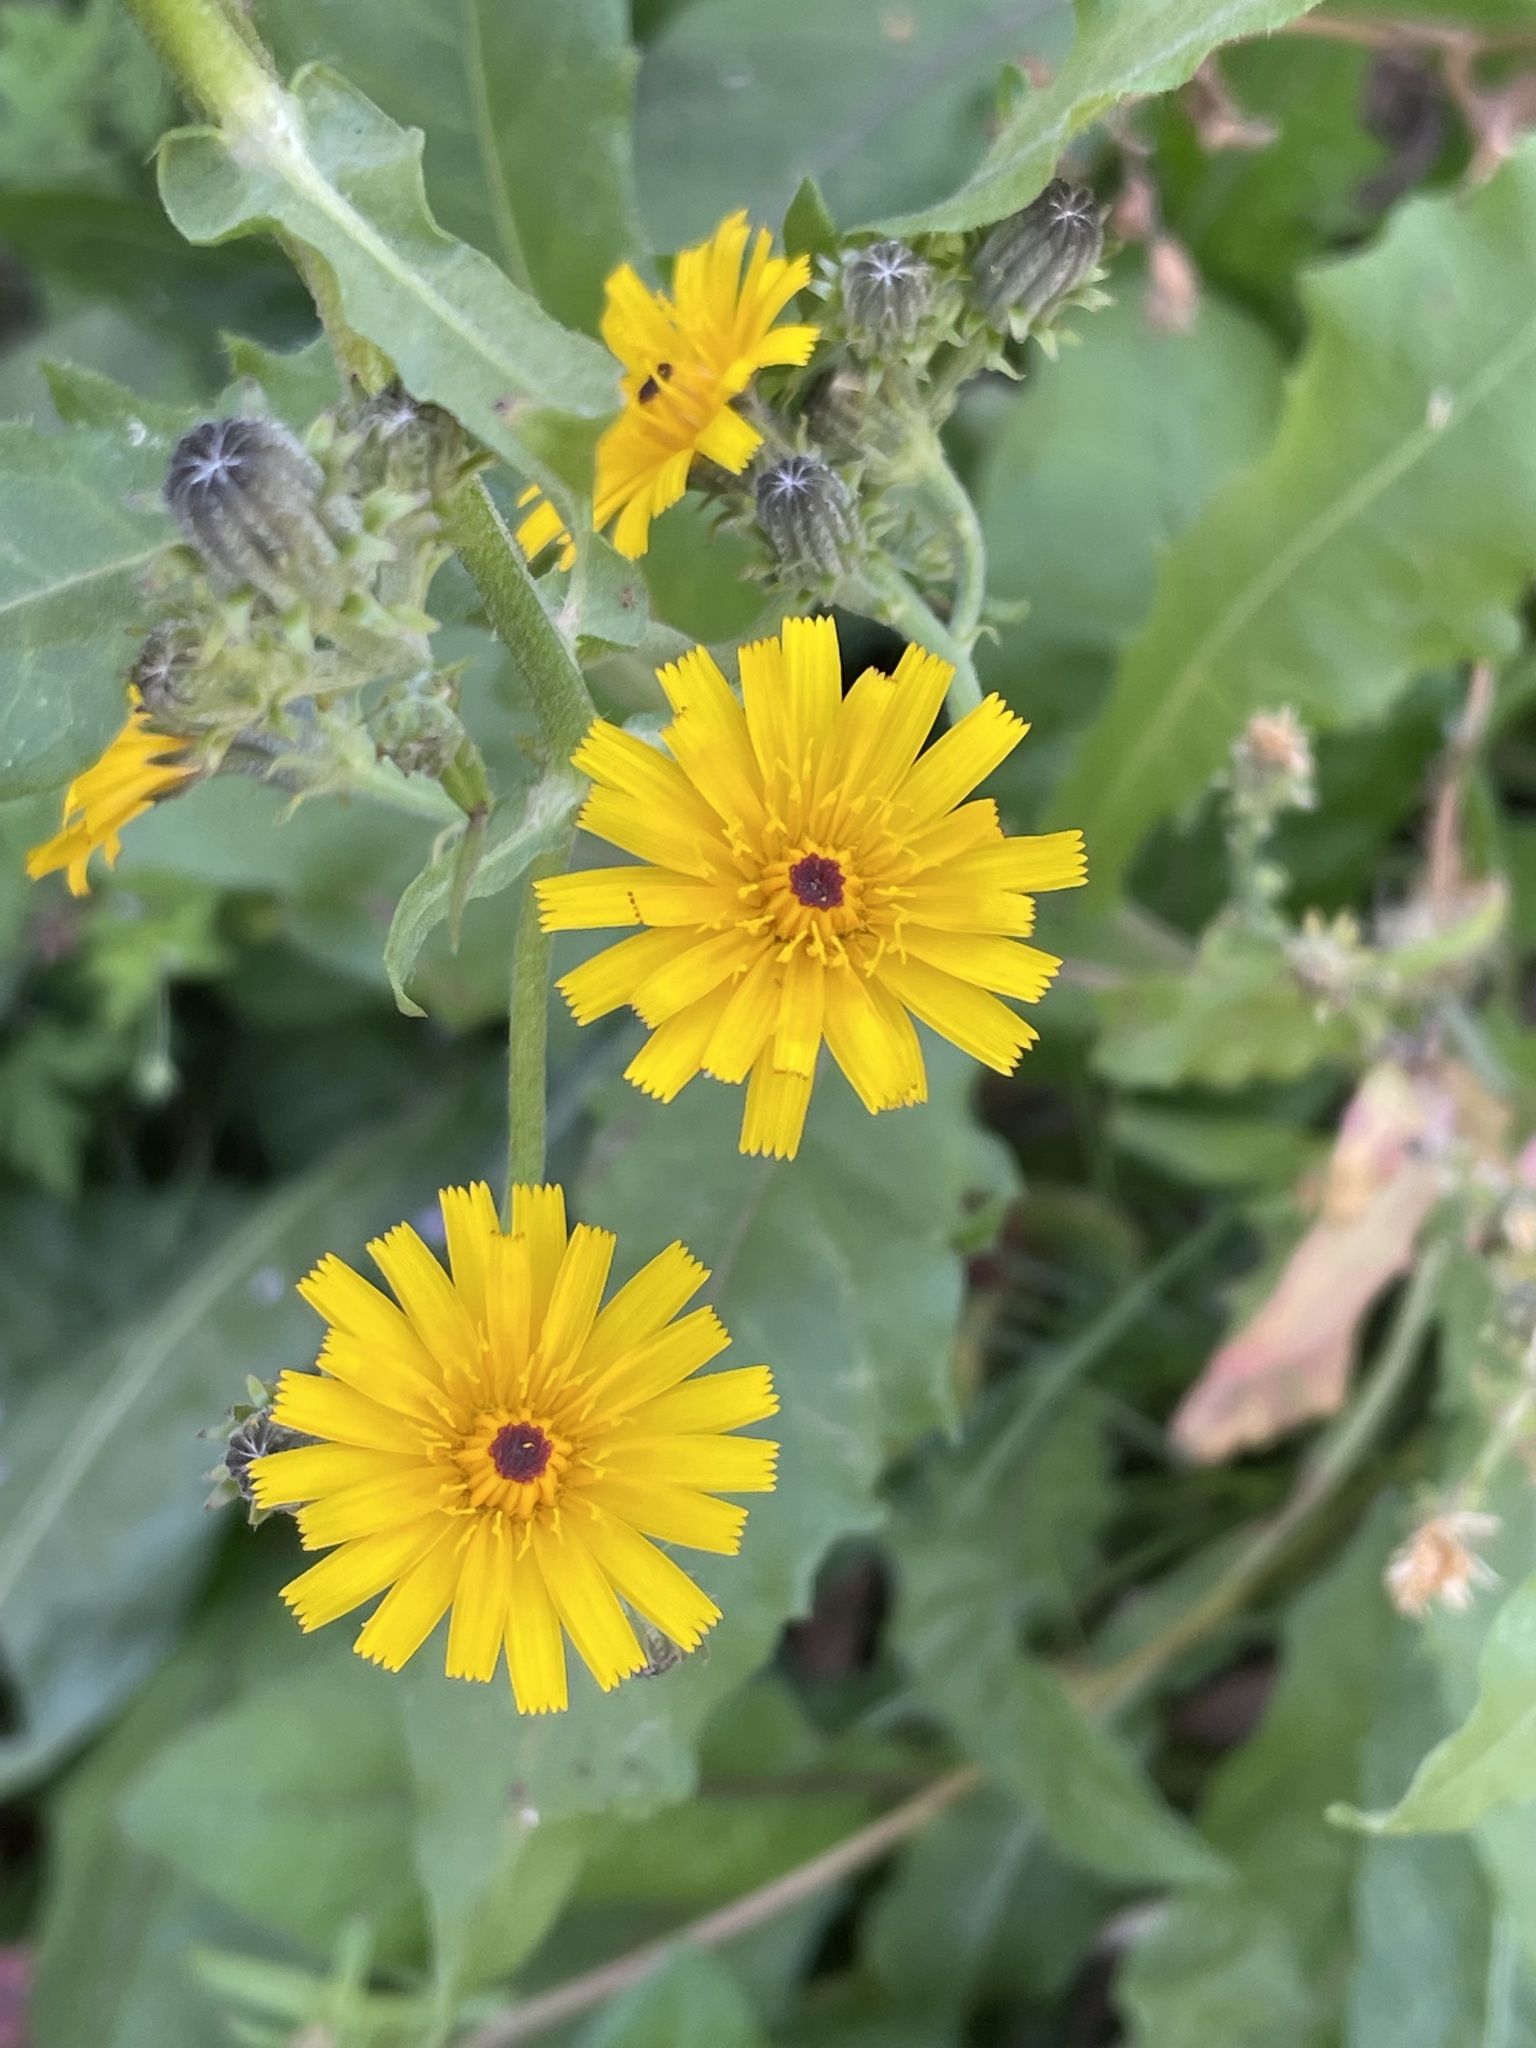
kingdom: Plantae
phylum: Tracheophyta
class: Magnoliopsida
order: Asterales
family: Asteraceae
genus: Picris
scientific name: Picris hieracioides
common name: Hawkweed oxtongue
